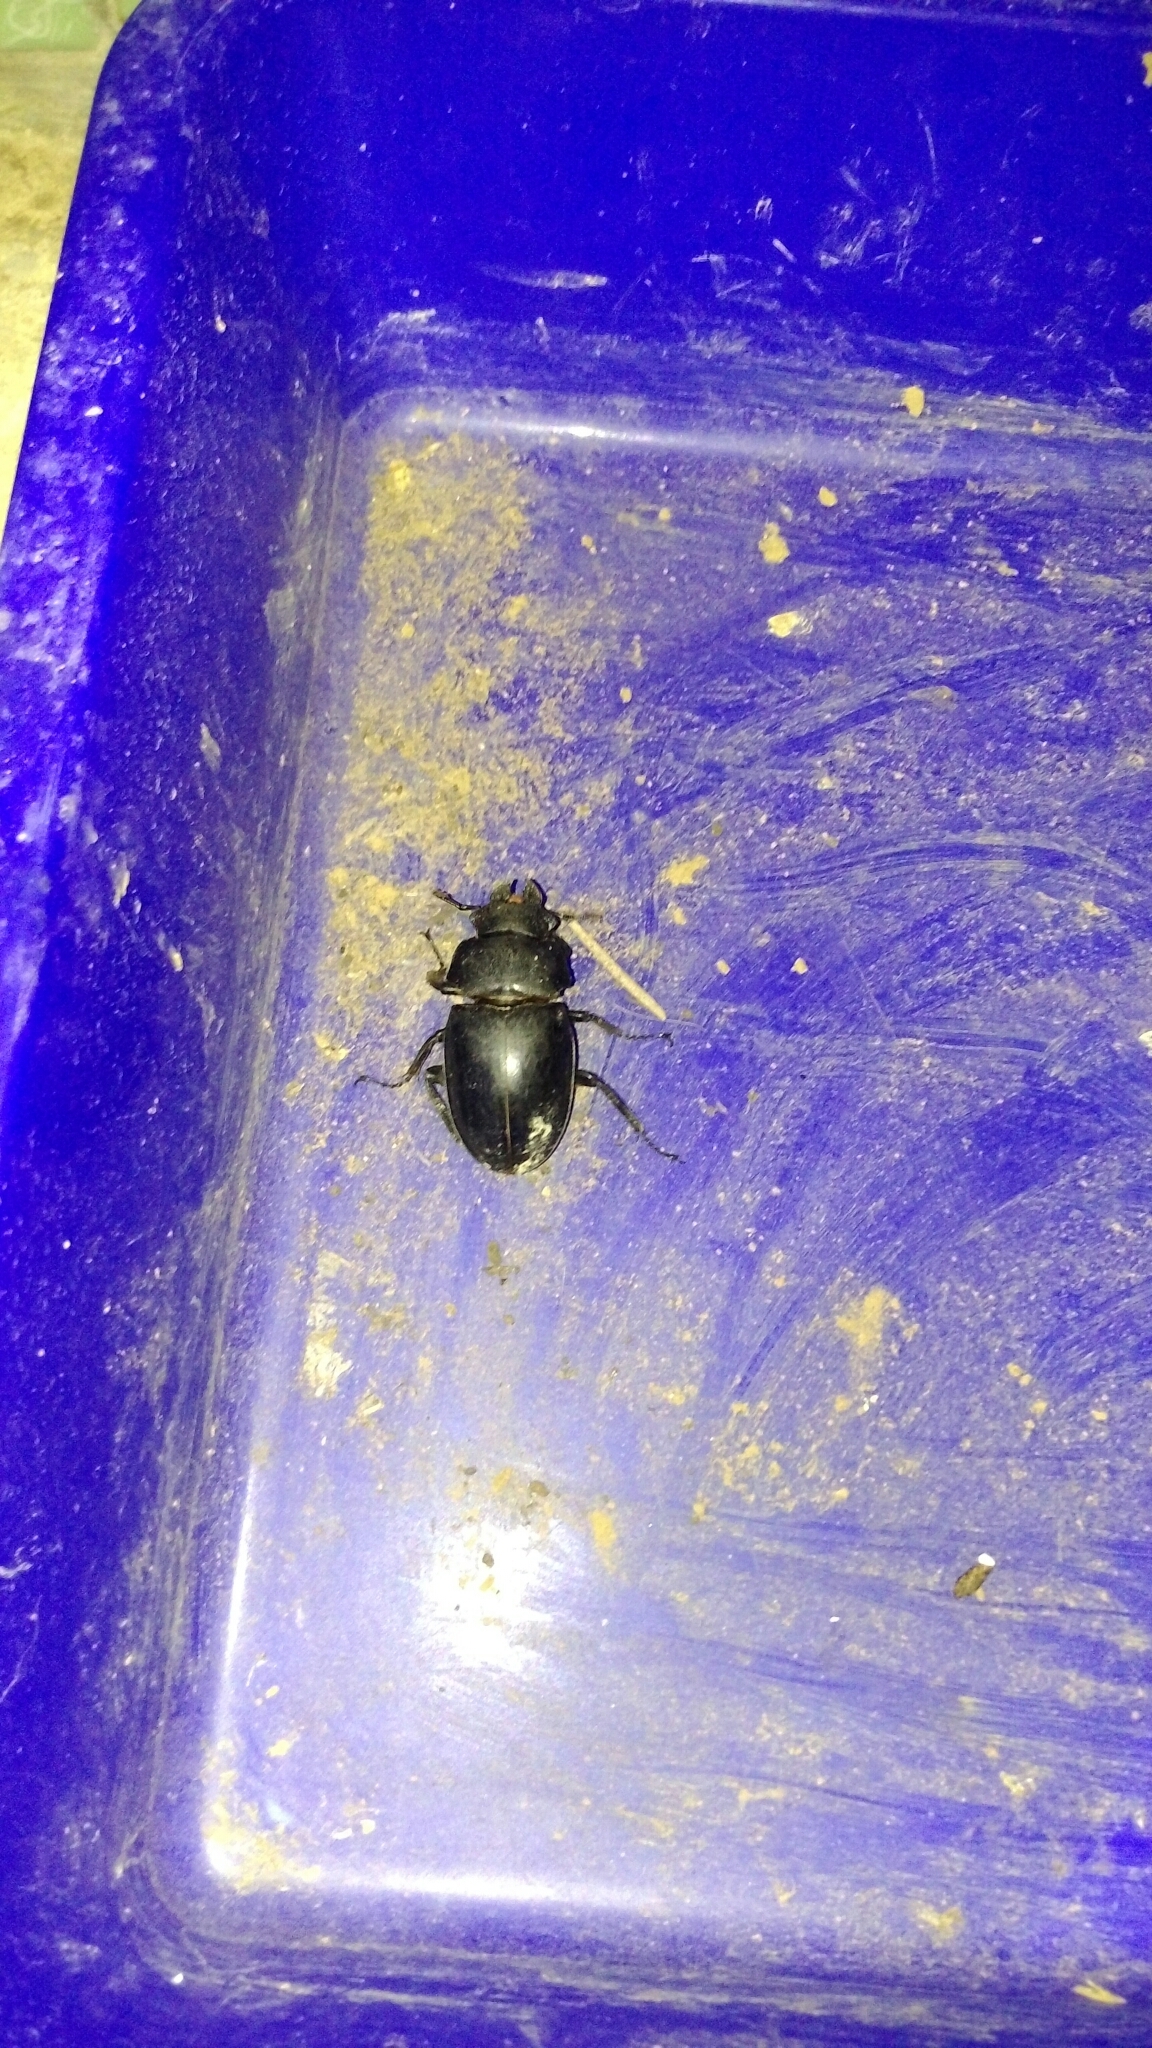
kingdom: Animalia
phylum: Arthropoda
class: Insecta
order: Coleoptera
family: Lucanidae
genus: Odontolabis
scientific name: Odontolabis siva
